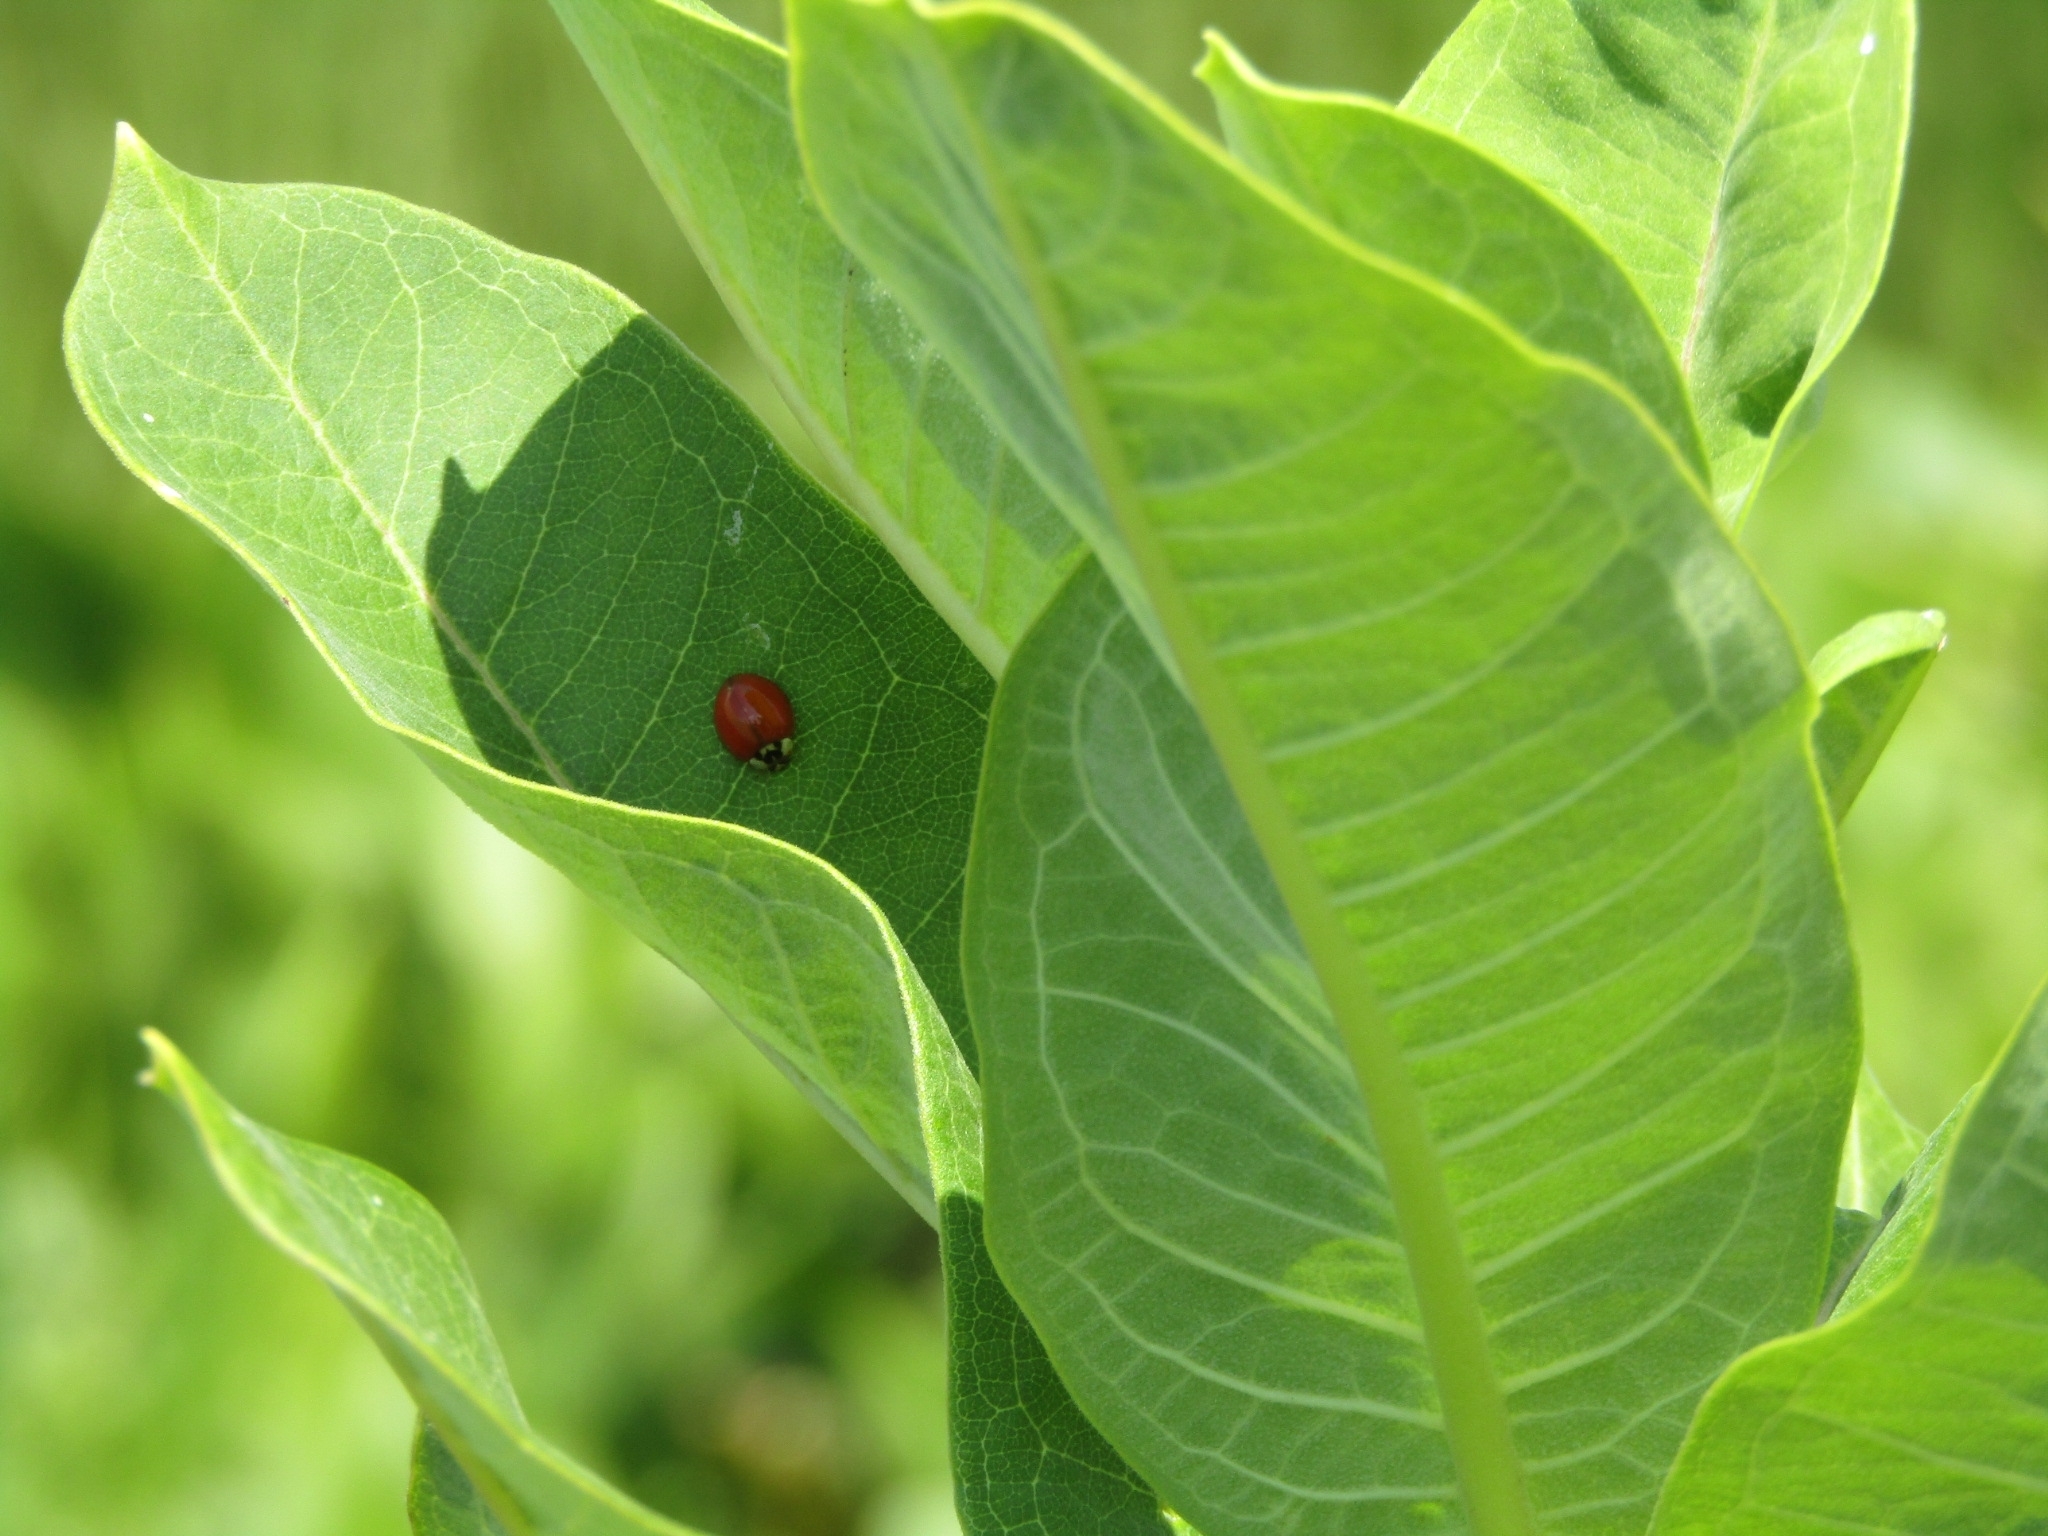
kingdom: Animalia
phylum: Arthropoda
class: Insecta
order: Coleoptera
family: Coccinellidae
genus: Harmonia
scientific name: Harmonia axyridis
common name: Harlequin ladybird
